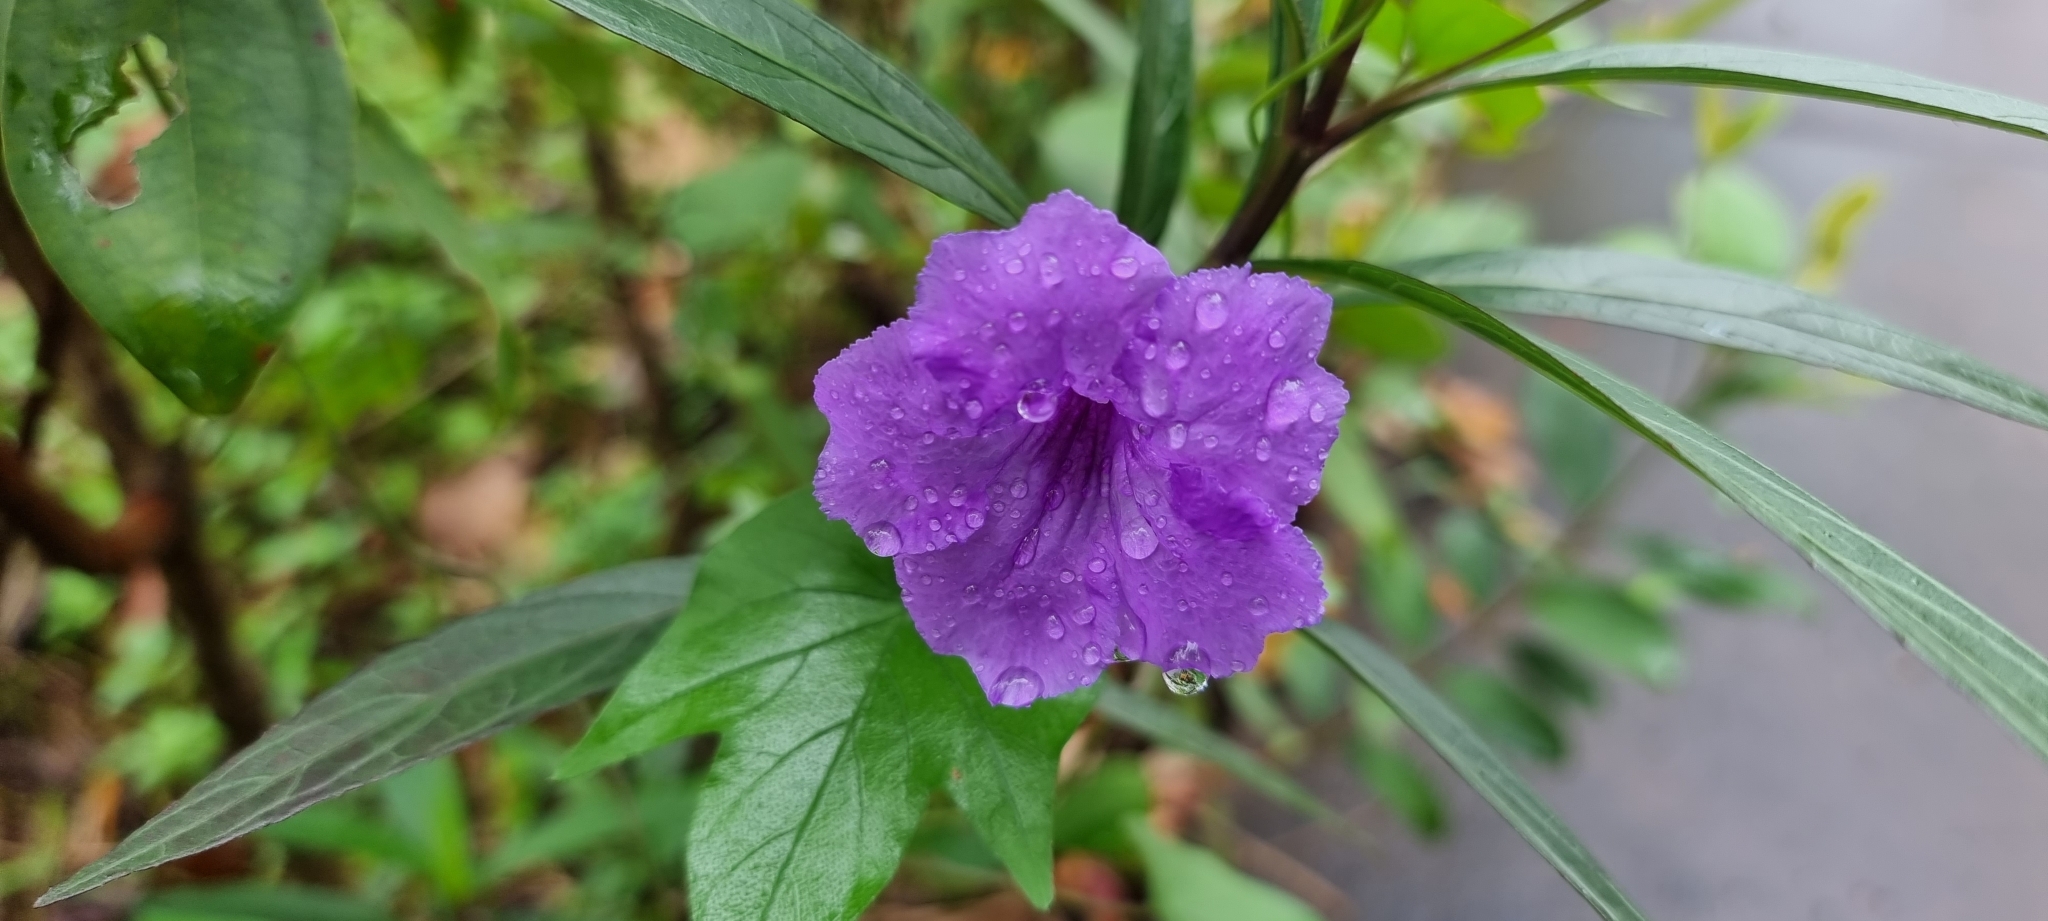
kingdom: Plantae
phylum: Tracheophyta
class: Magnoliopsida
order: Lamiales
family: Acanthaceae
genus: Ruellia
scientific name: Ruellia simplex
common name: Softseed wild petunia
